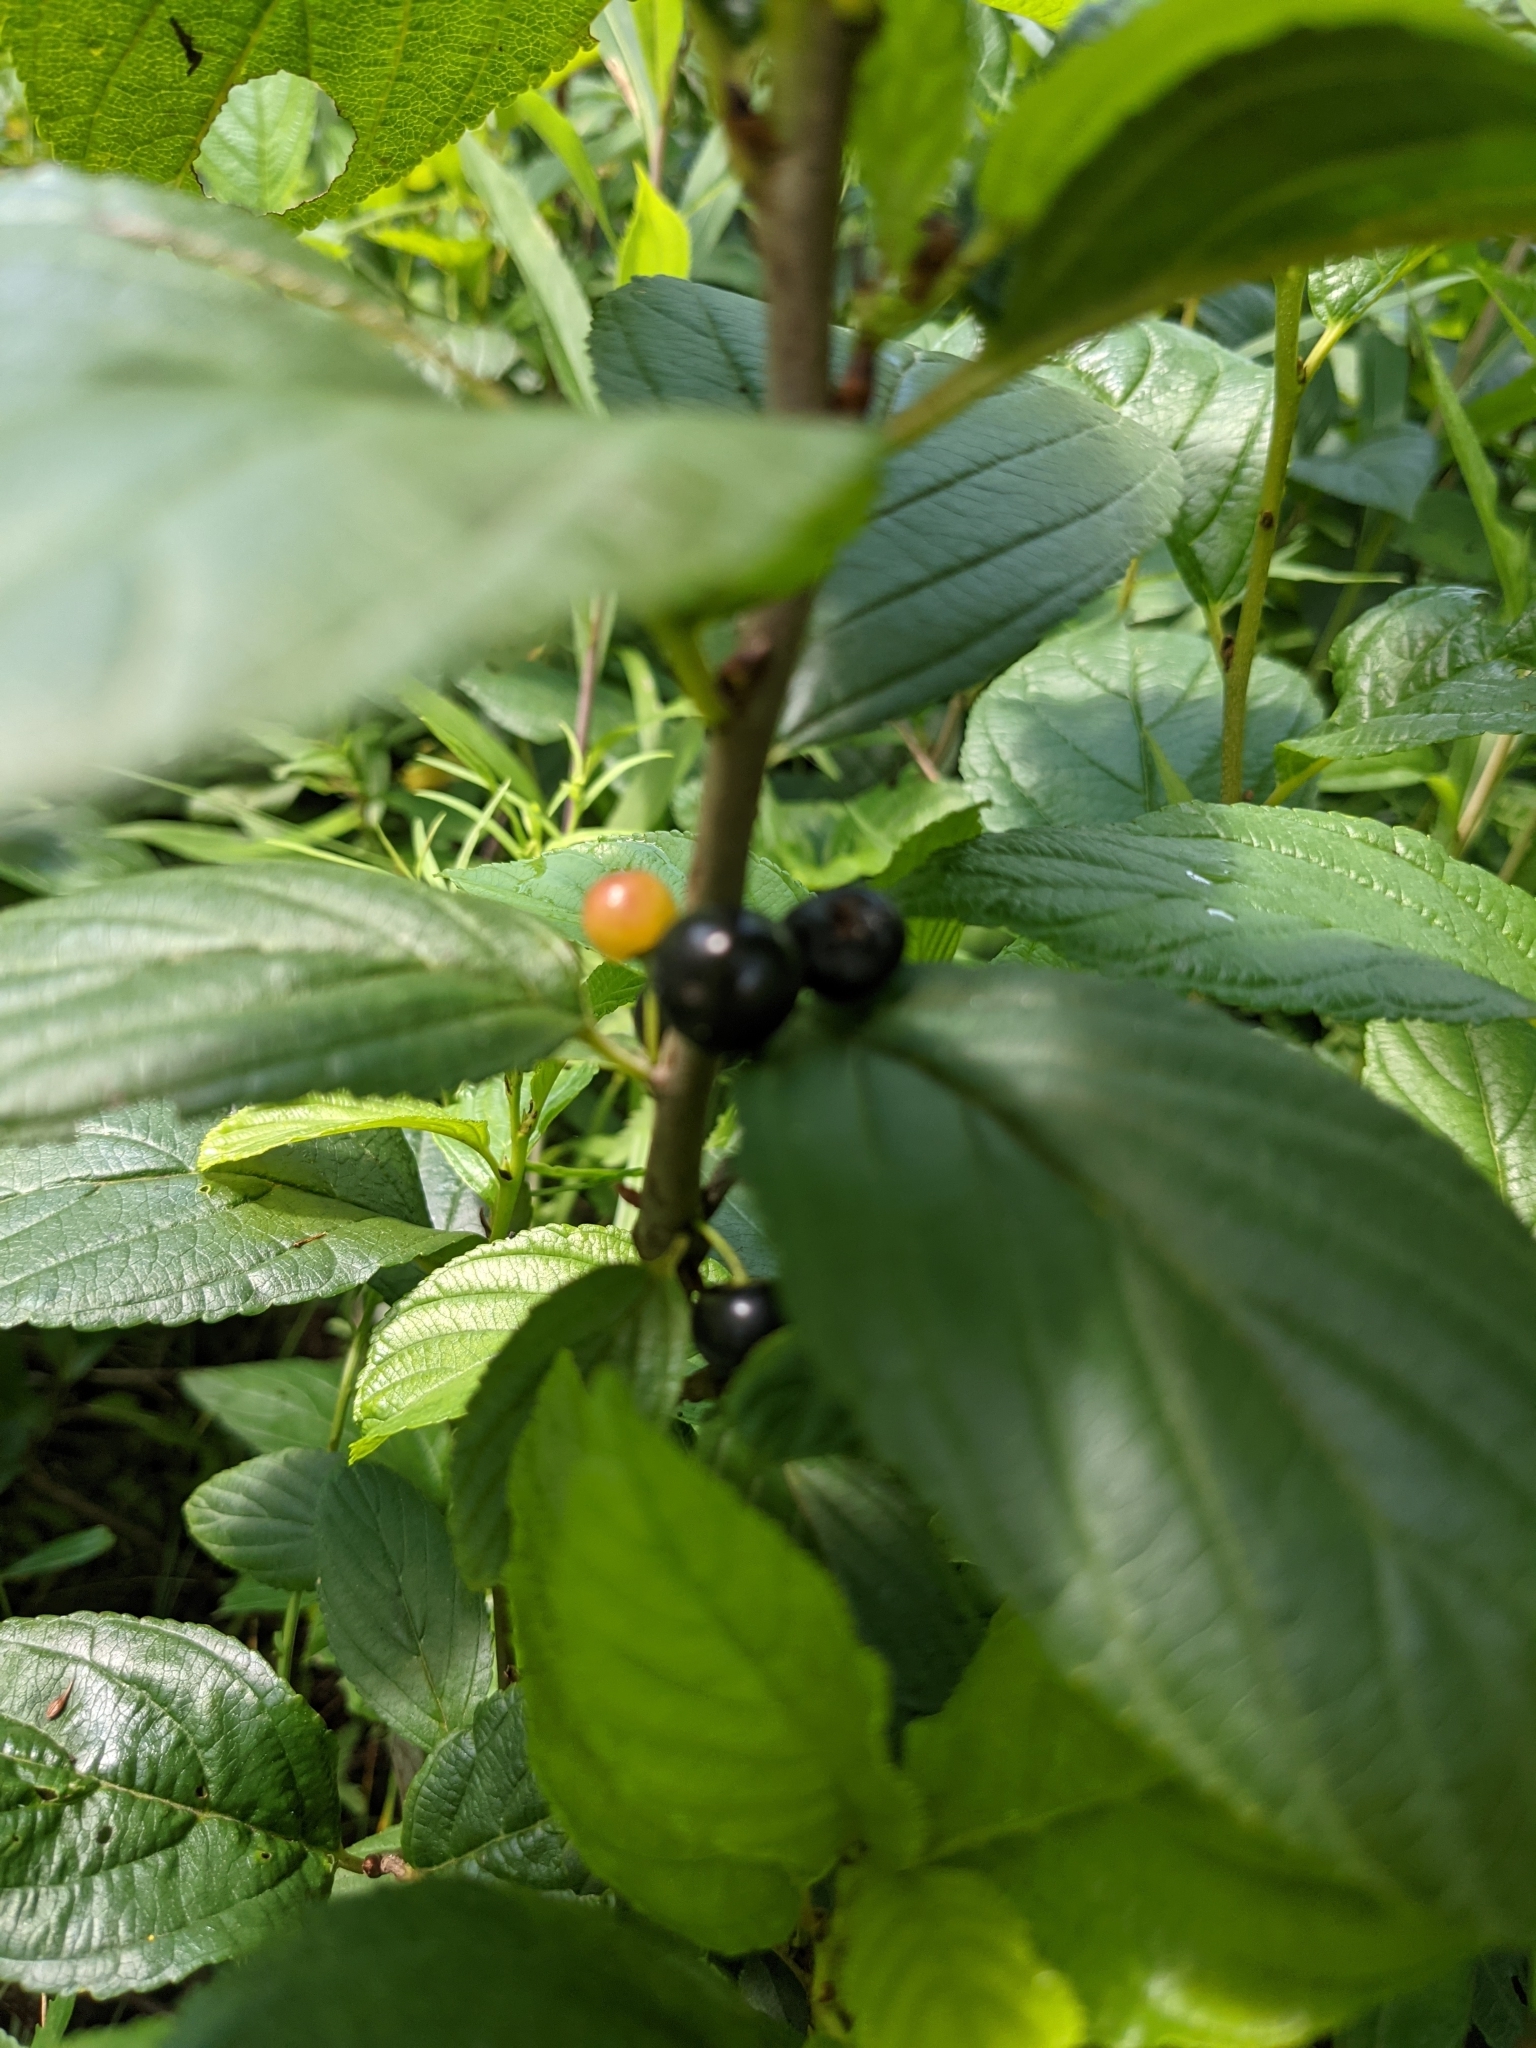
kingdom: Plantae
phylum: Tracheophyta
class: Magnoliopsida
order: Rosales
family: Rhamnaceae
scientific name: Rhamnaceae
